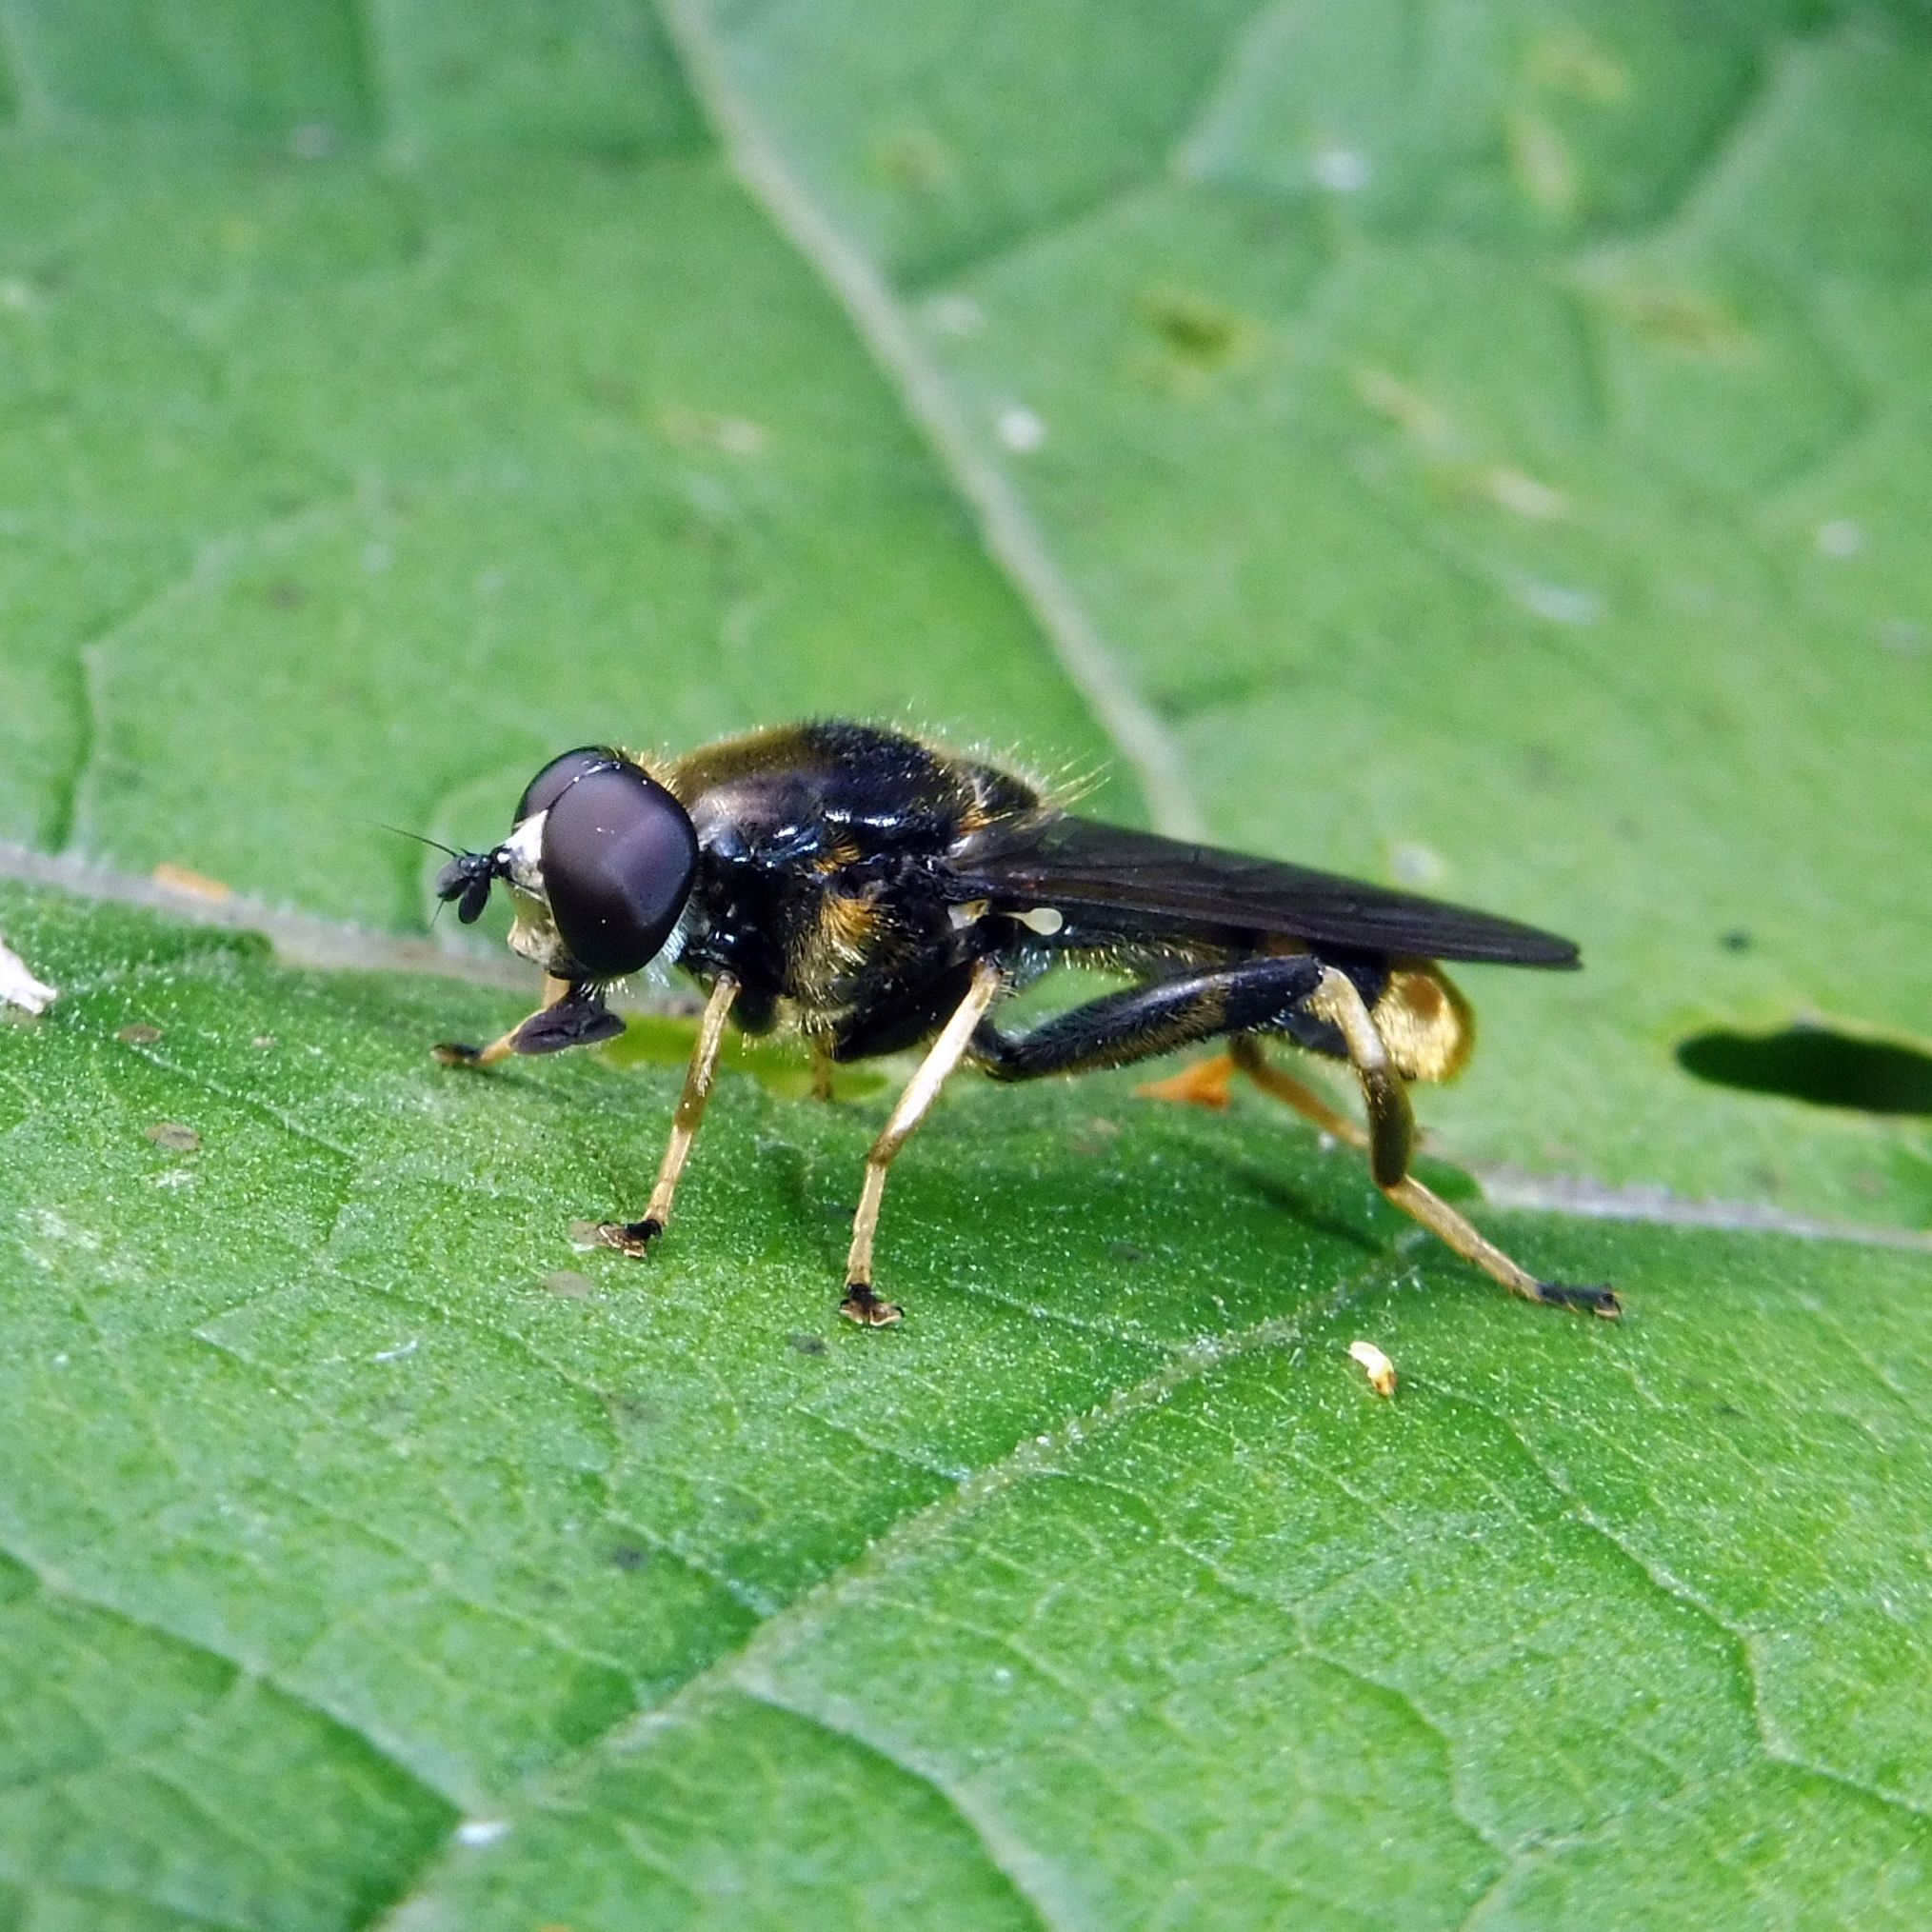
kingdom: Animalia
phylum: Arthropoda
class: Insecta
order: Diptera
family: Syrphidae
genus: Xylota
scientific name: Xylota sylvarum
